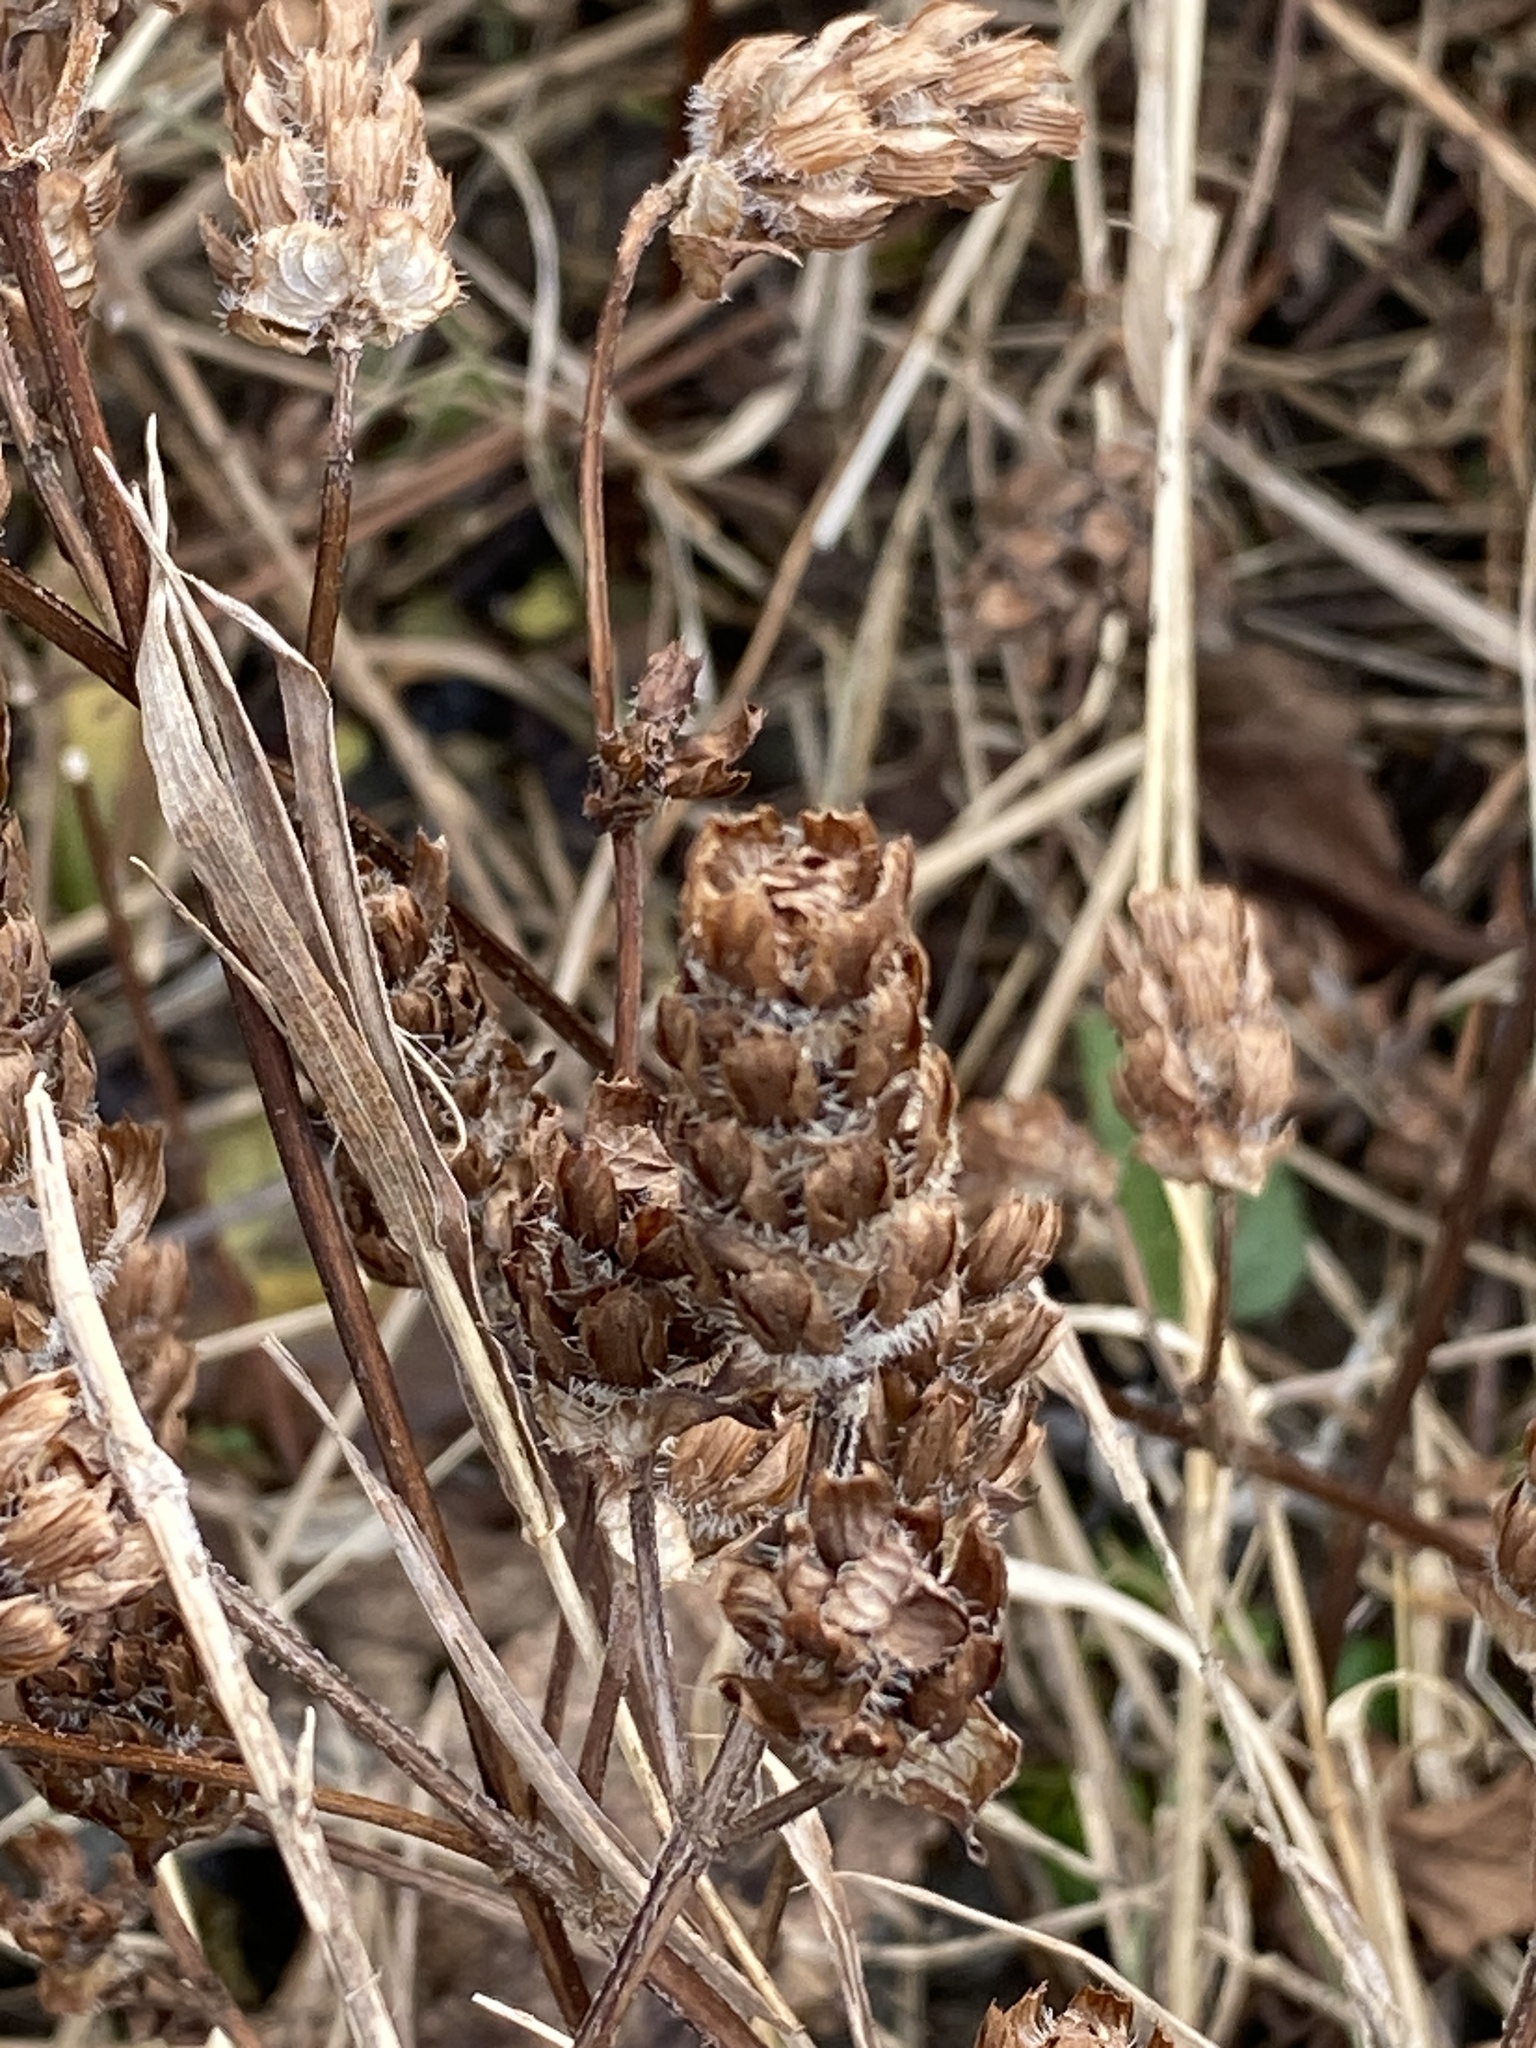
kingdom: Plantae
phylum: Tracheophyta
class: Magnoliopsida
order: Lamiales
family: Lamiaceae
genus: Prunella
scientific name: Prunella vulgaris
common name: Heal-all
